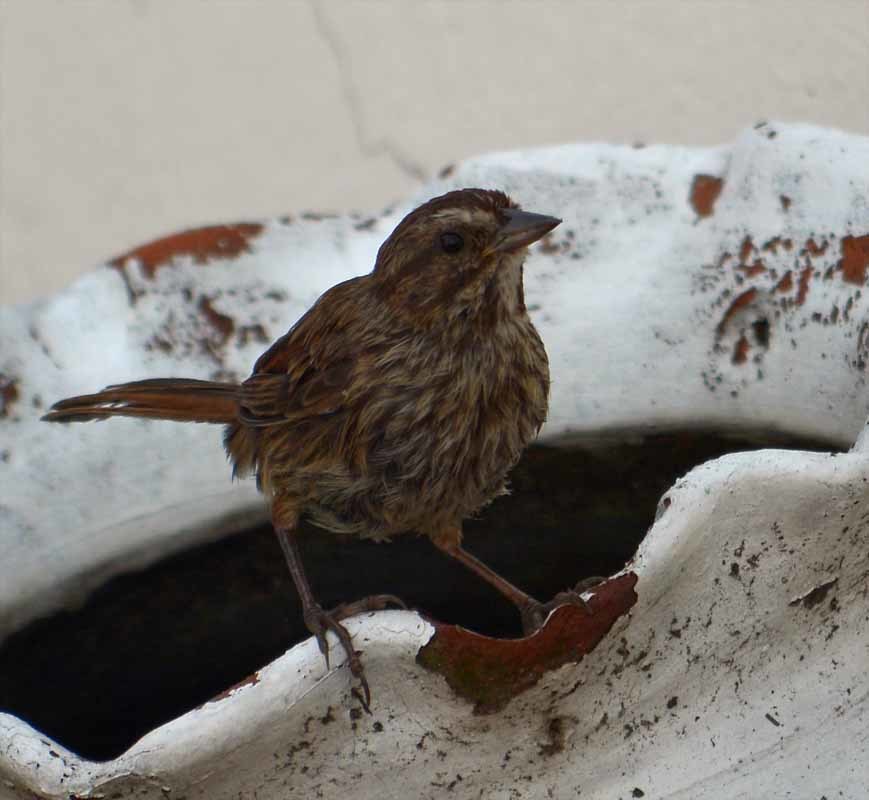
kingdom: Animalia
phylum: Chordata
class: Aves
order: Passeriformes
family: Passerellidae
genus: Melospiza
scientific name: Melospiza melodia
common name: Song sparrow
